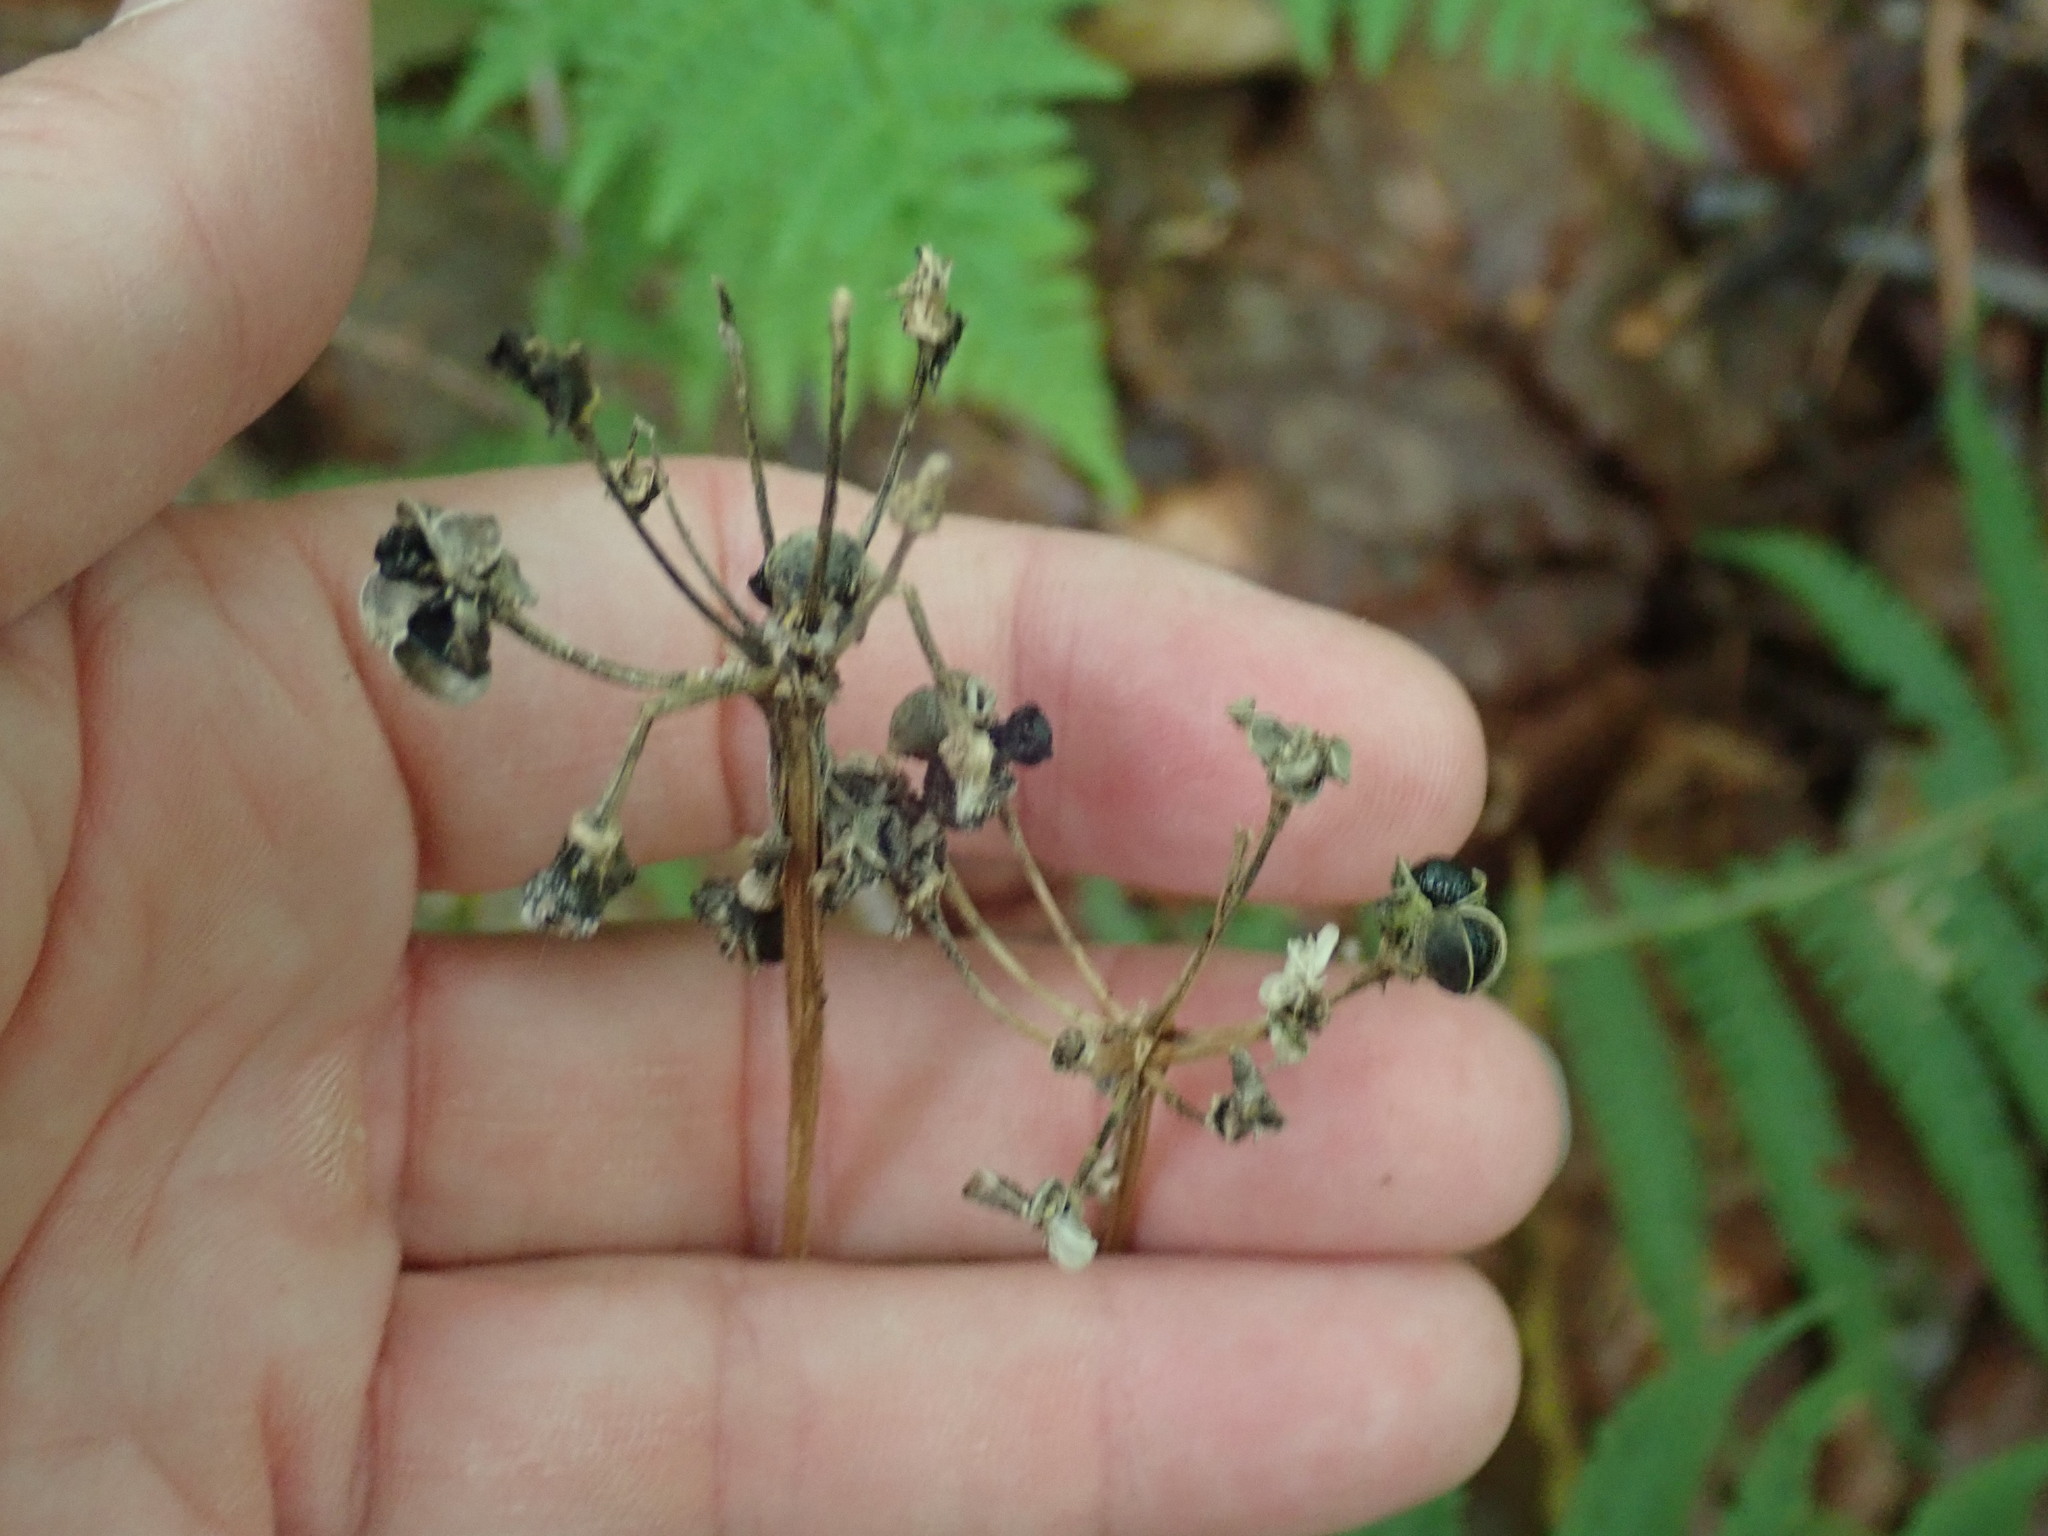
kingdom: Plantae
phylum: Tracheophyta
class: Liliopsida
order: Asparagales
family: Amaryllidaceae
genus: Allium
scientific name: Allium tricoccum
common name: Ramp
